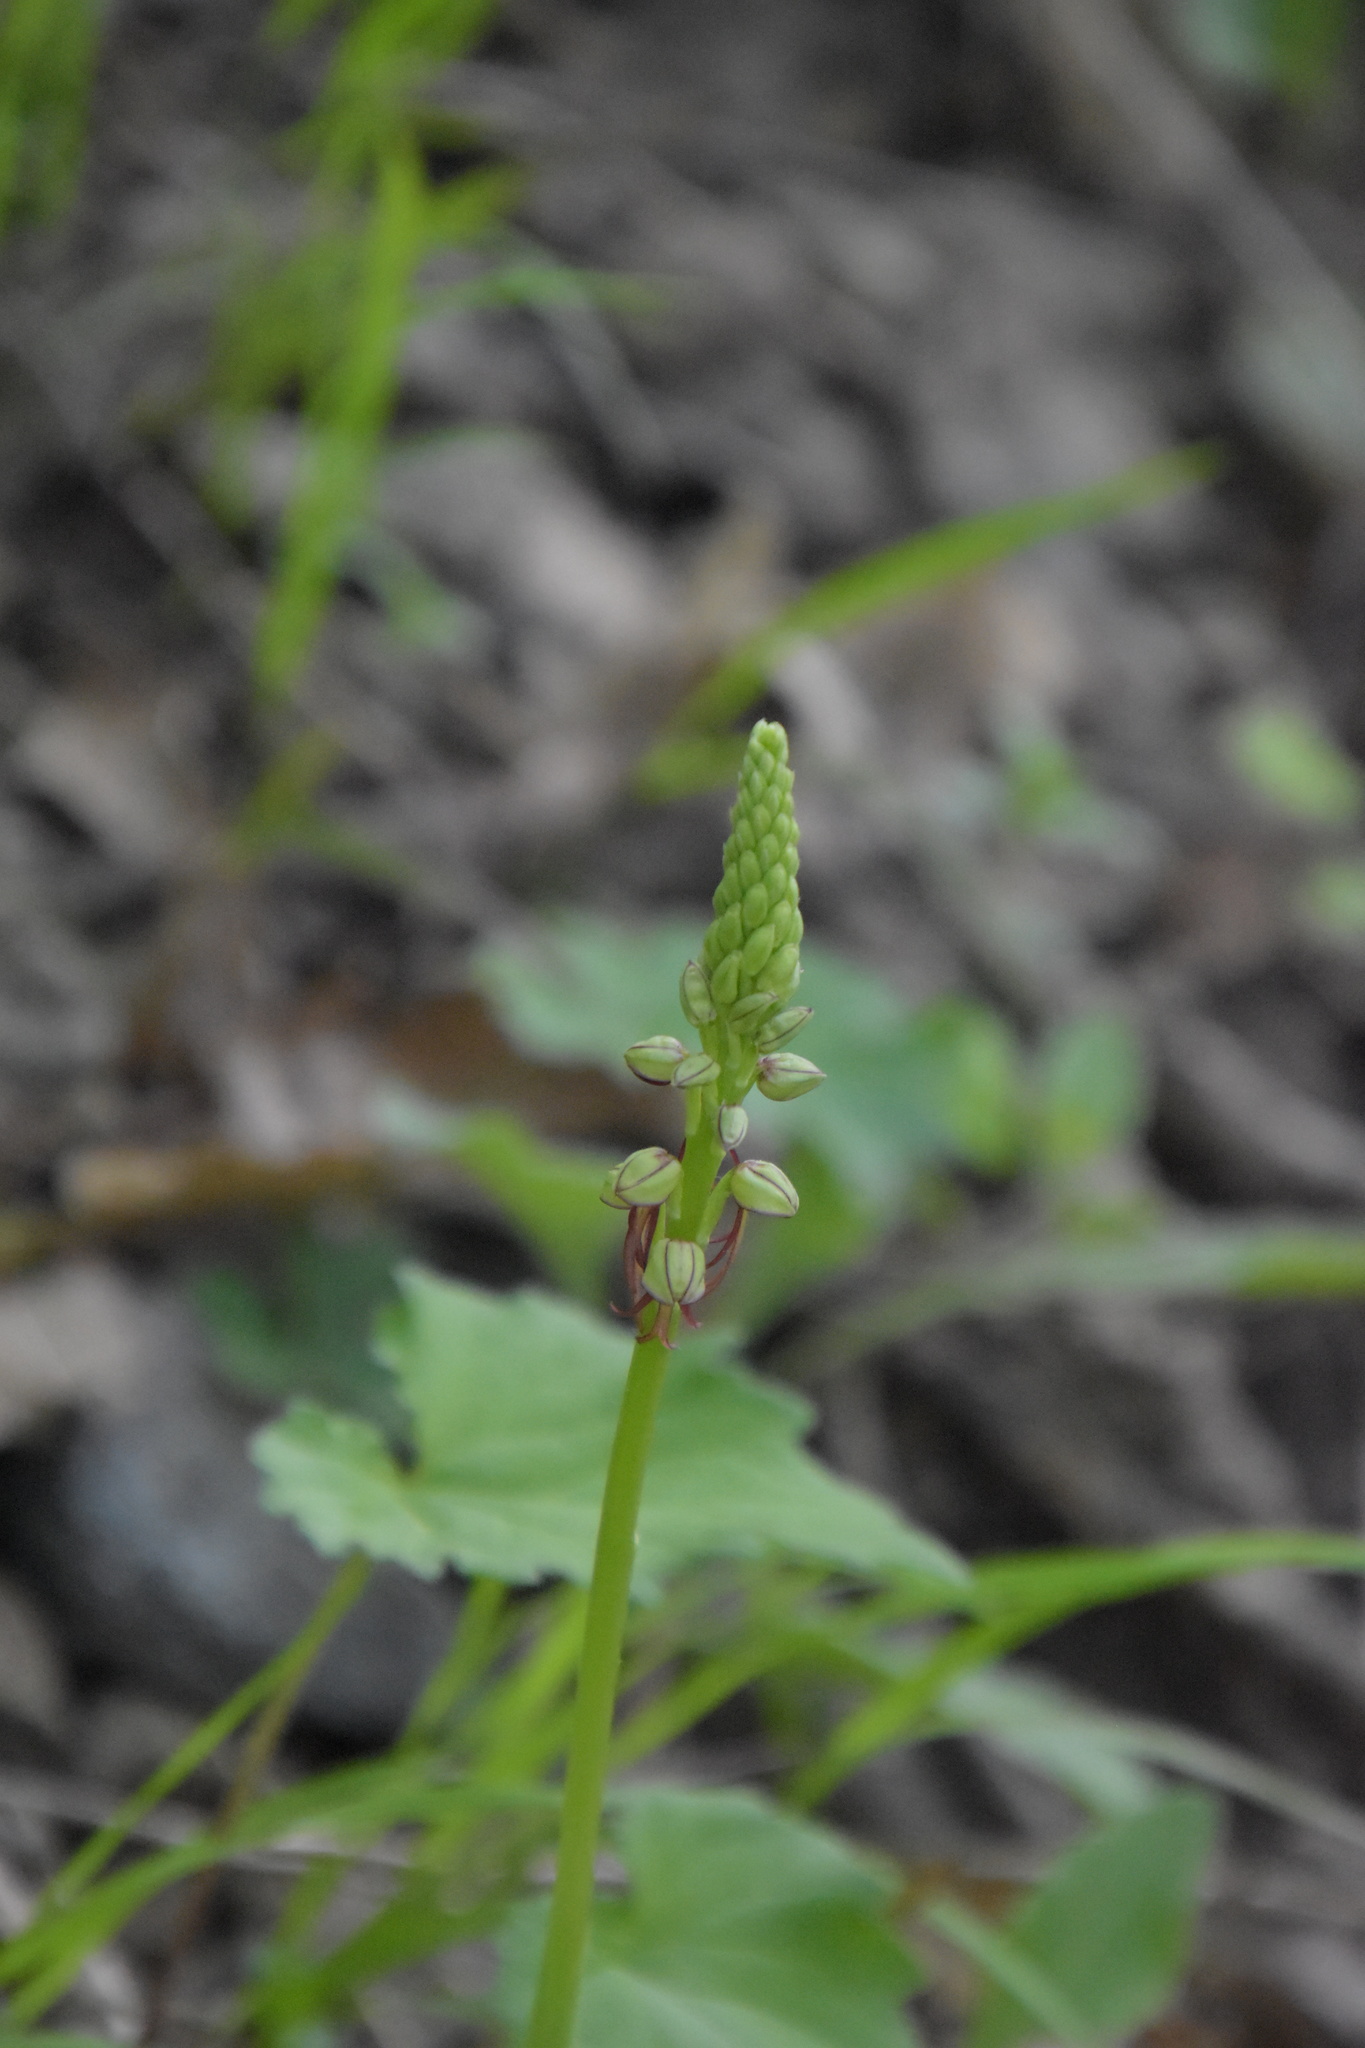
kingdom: Plantae
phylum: Tracheophyta
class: Liliopsida
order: Asparagales
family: Orchidaceae
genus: Orchis
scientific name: Orchis anthropophora
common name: Man orchid
